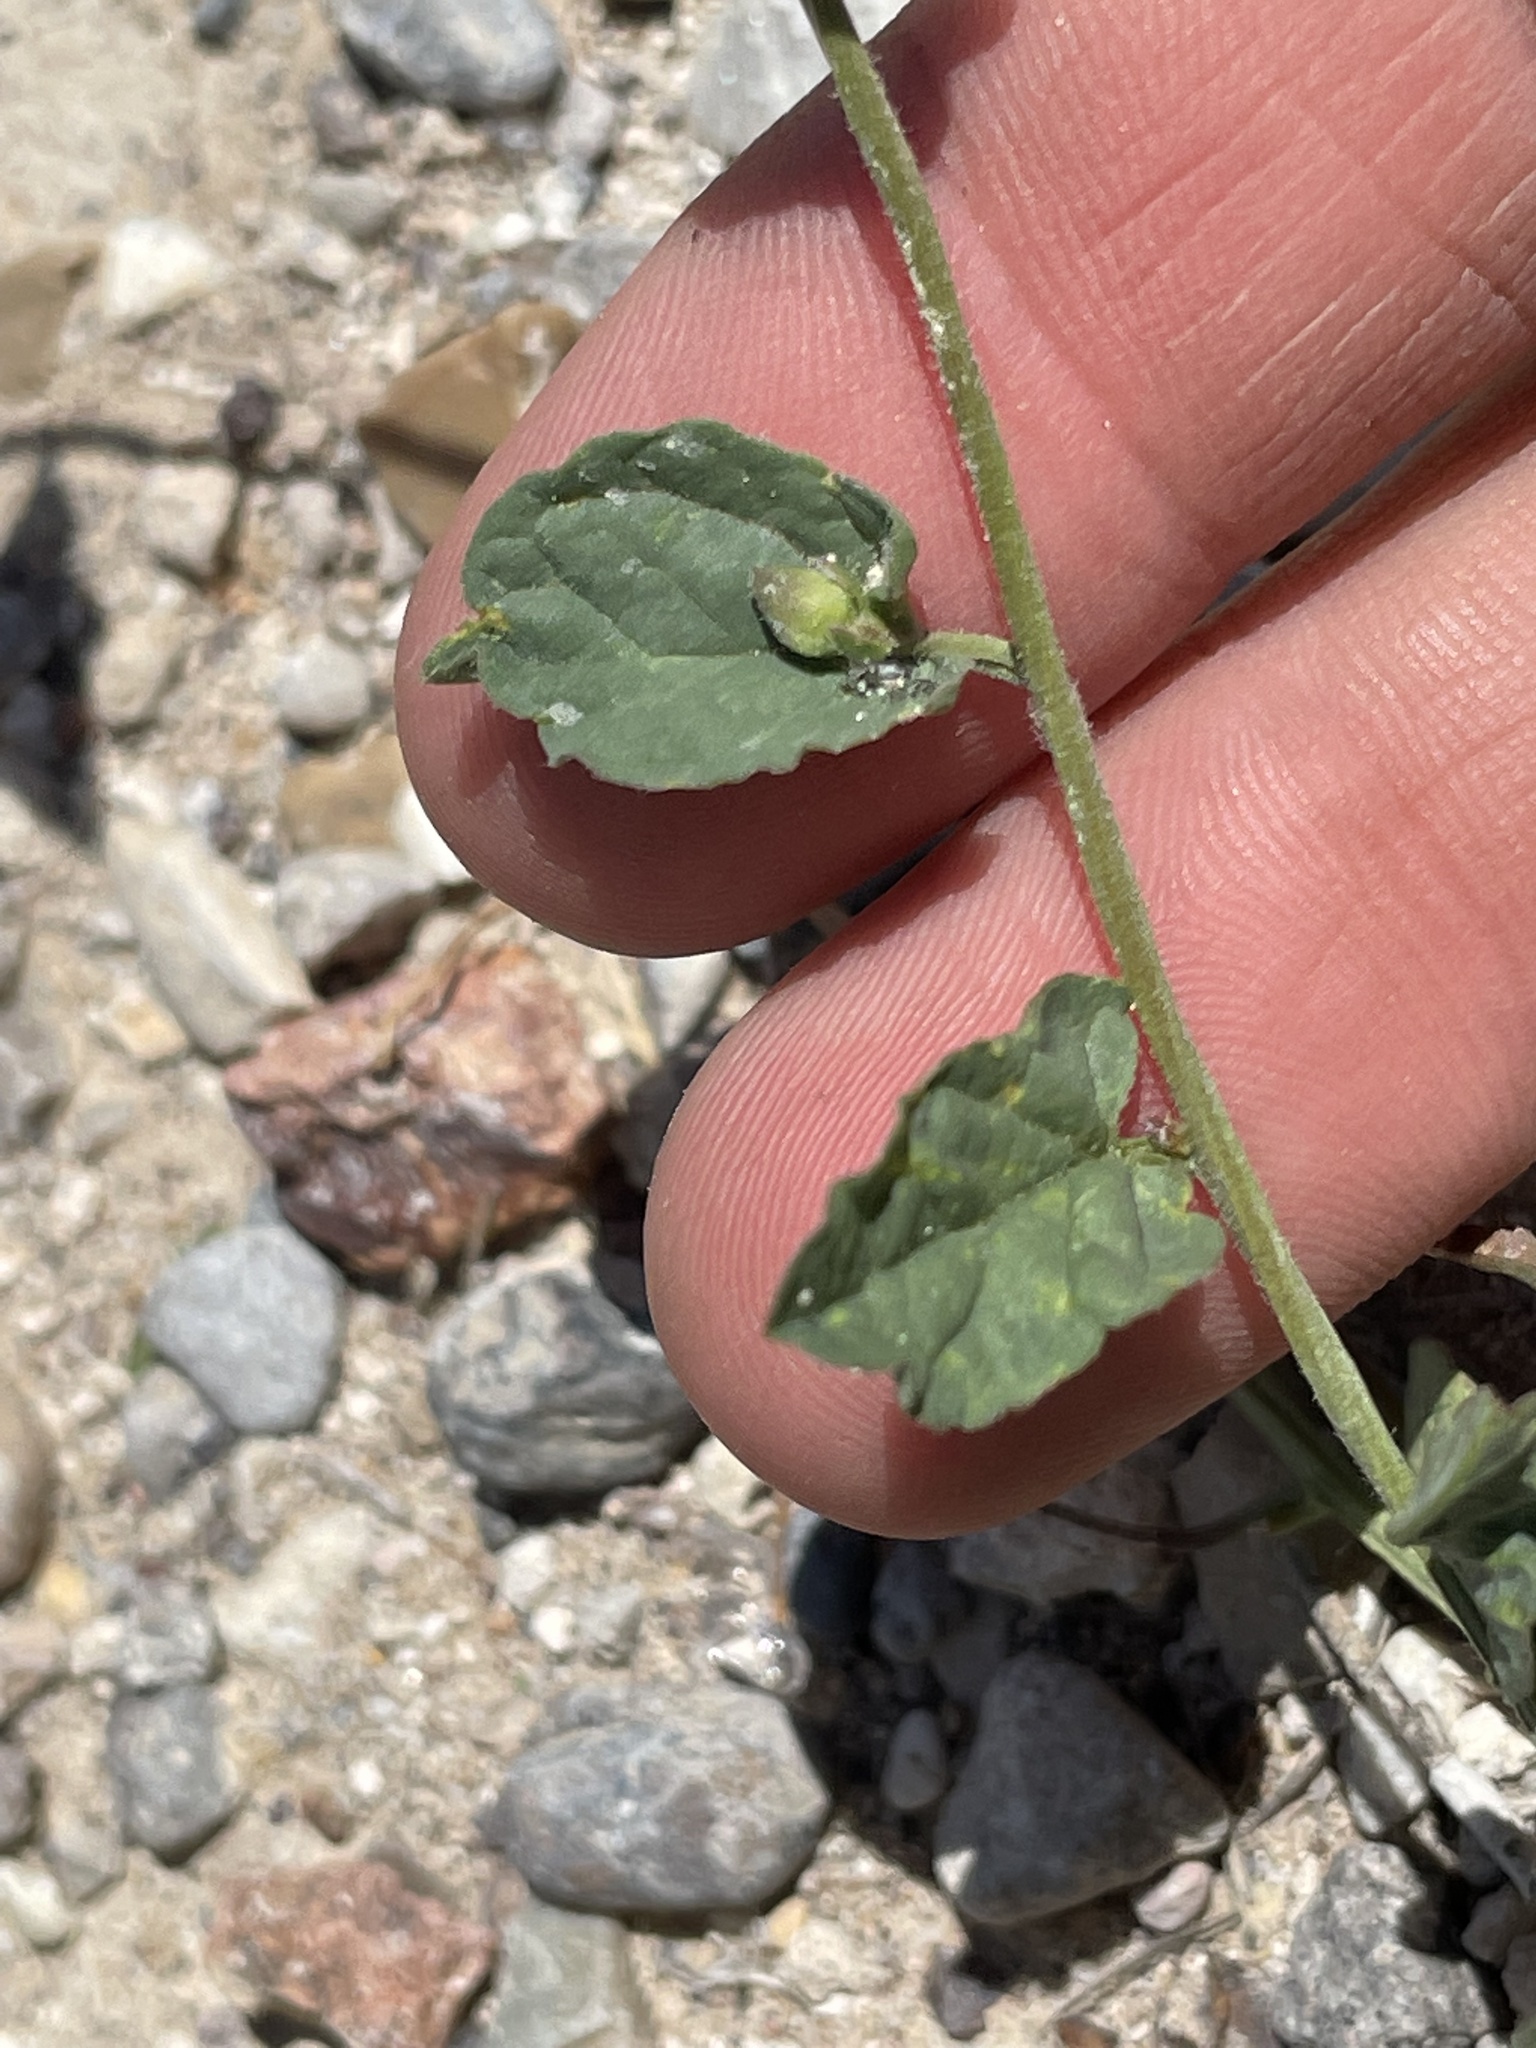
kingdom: Plantae
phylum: Tracheophyta
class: Magnoliopsida
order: Solanales
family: Convolvulaceae
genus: Convolvulus
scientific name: Convolvulus arvensis
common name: Field bindweed
